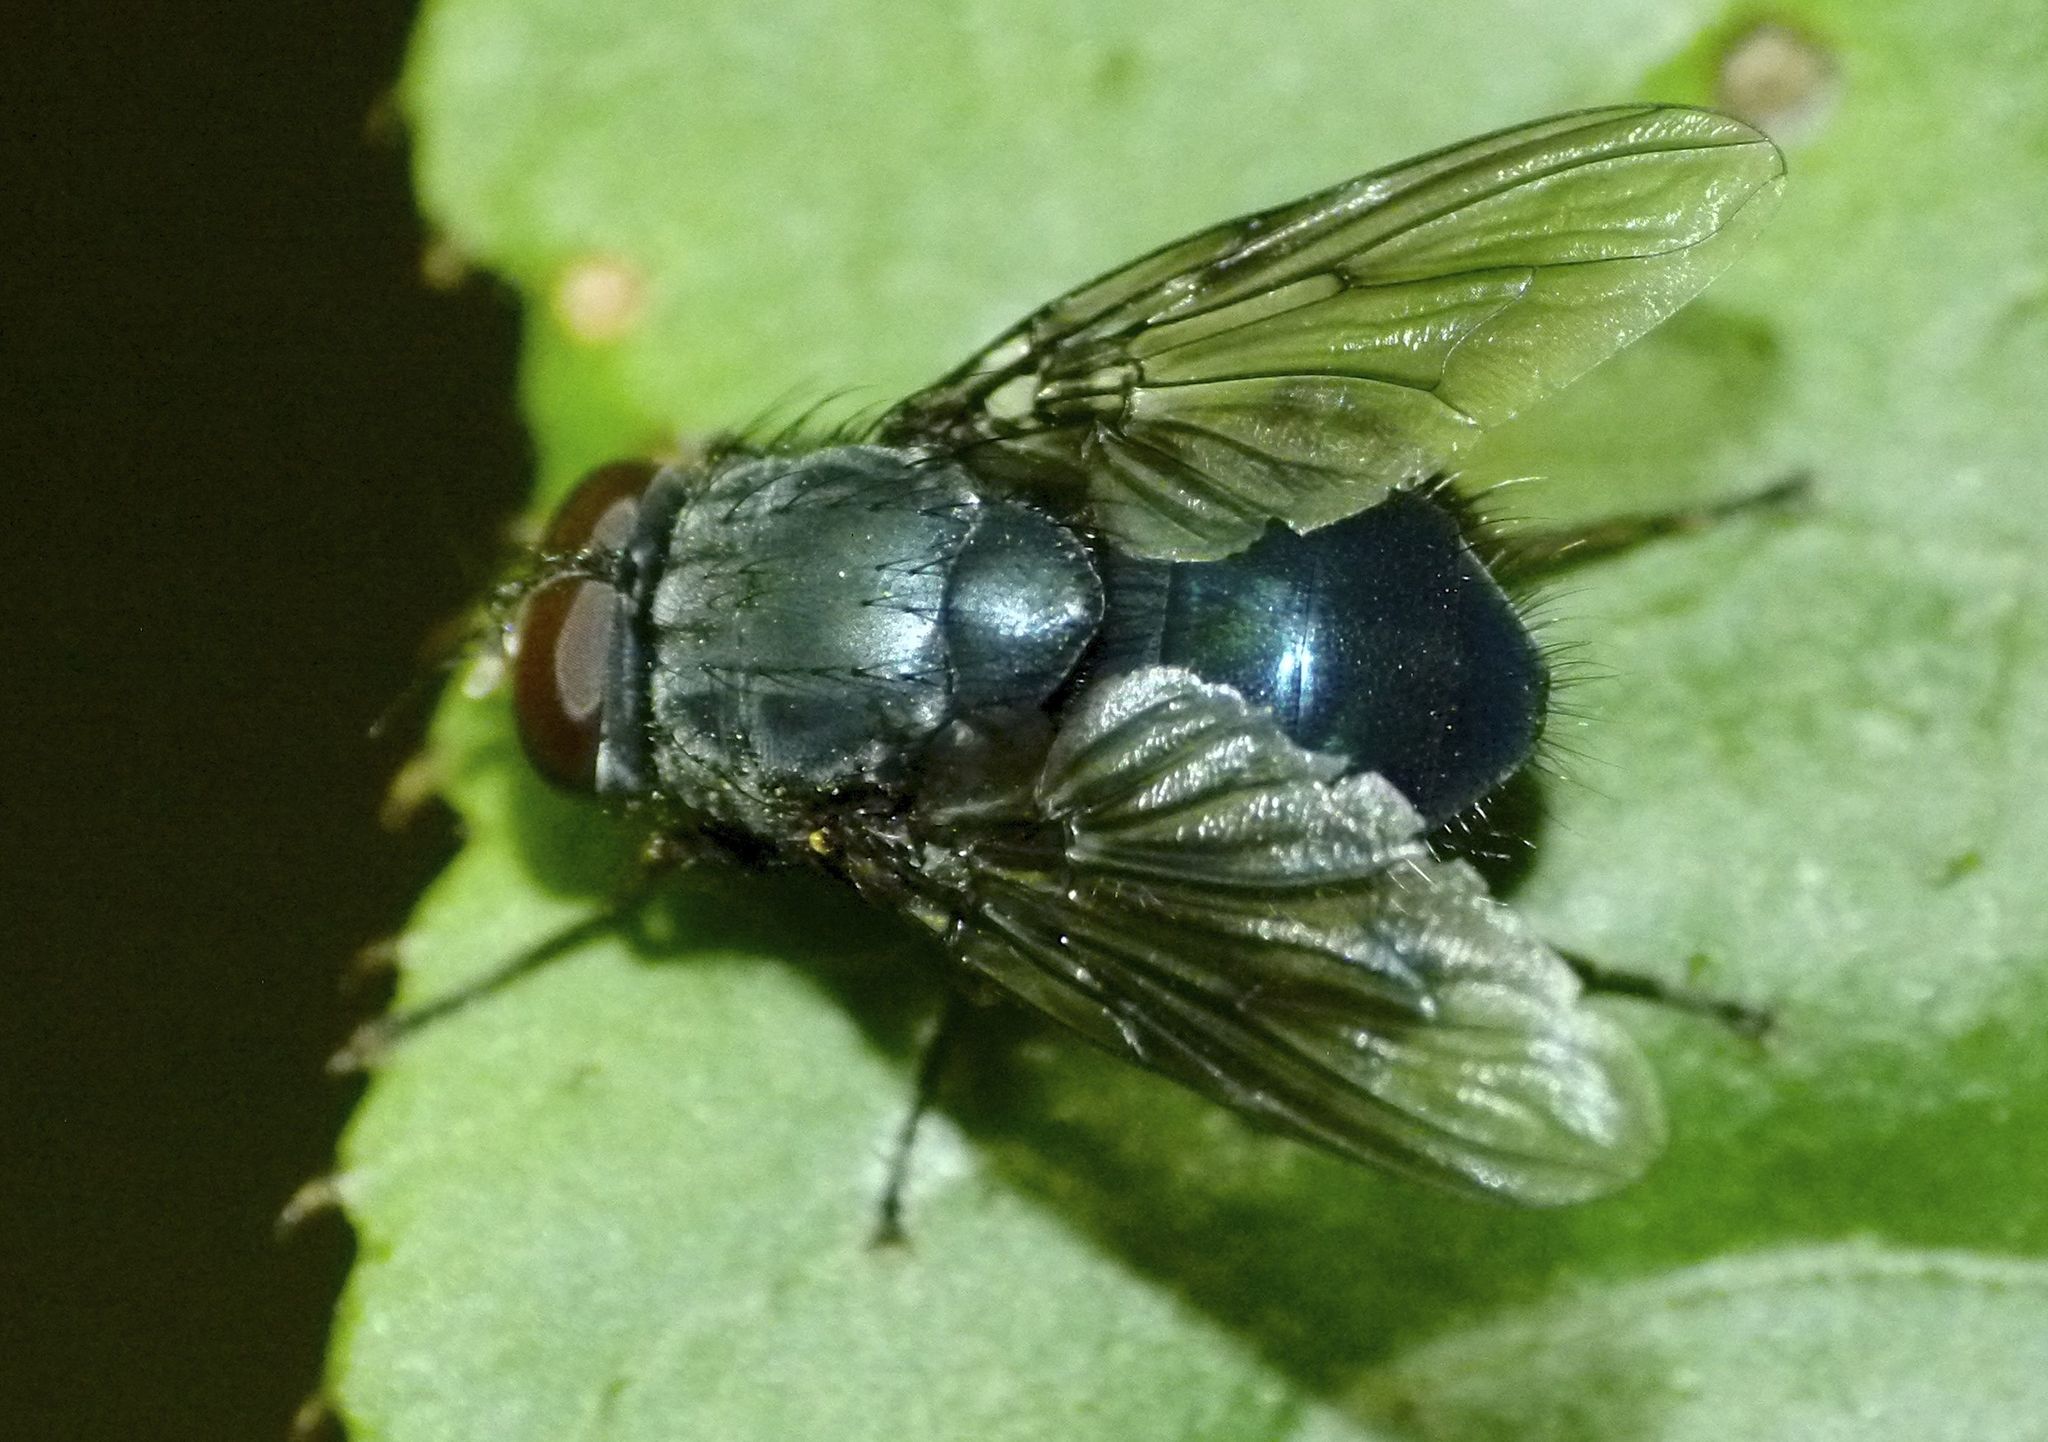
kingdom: Animalia
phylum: Arthropoda
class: Insecta
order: Diptera
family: Muscidae
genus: Calliphoroides
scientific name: Calliphoroides antennatis
